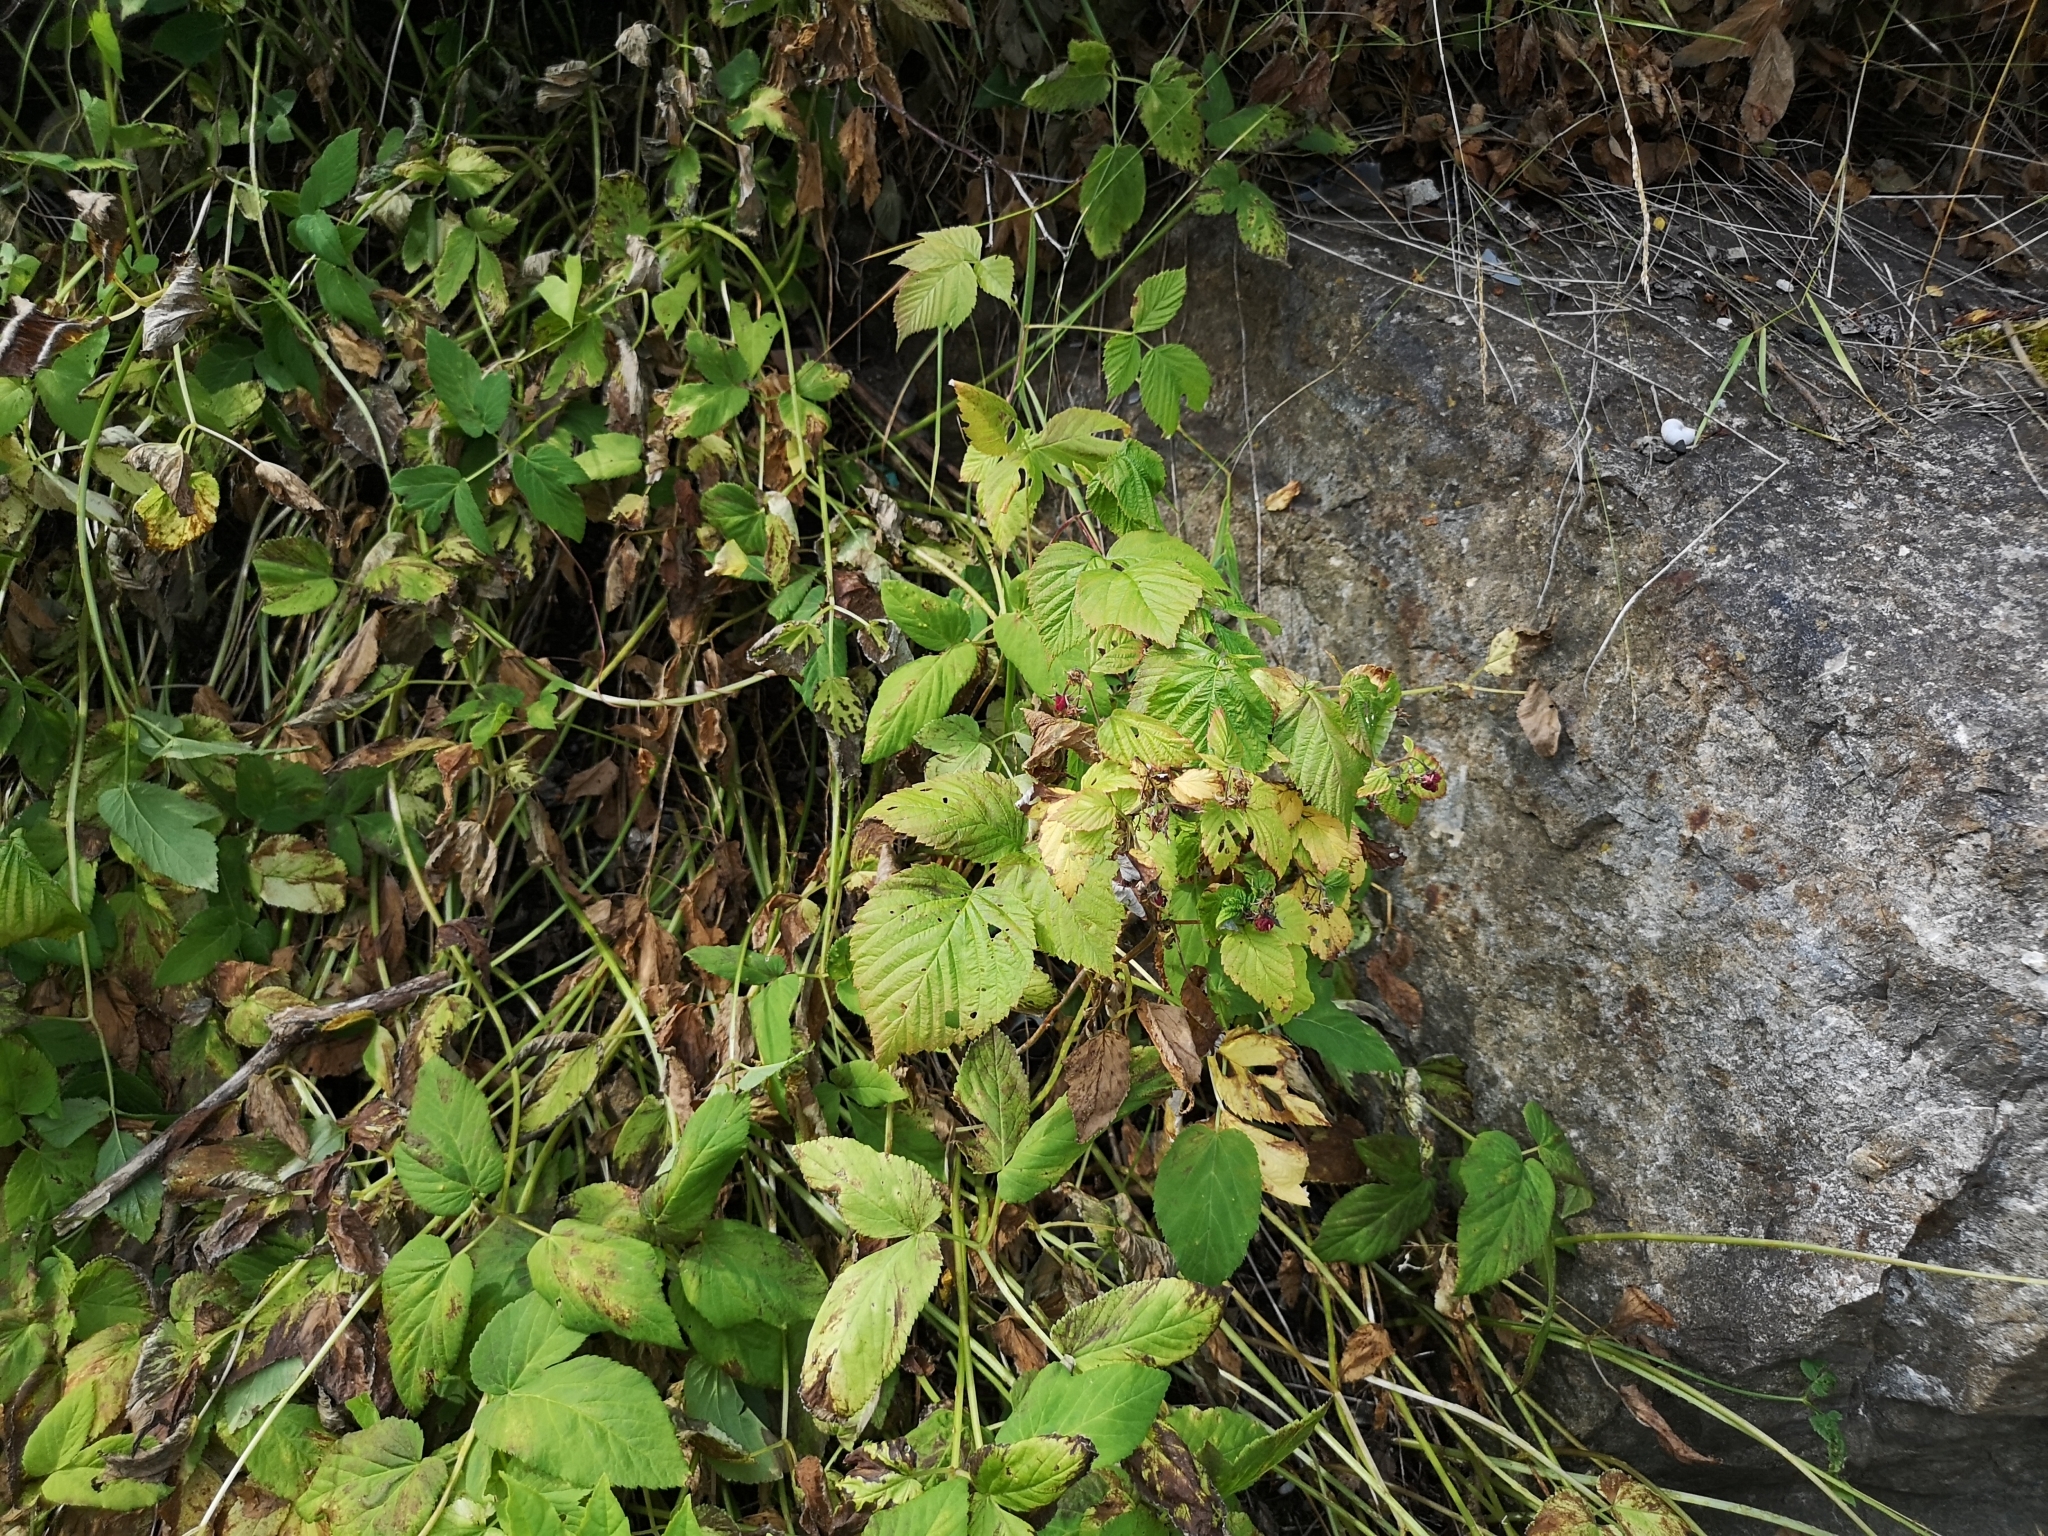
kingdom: Plantae
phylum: Tracheophyta
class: Magnoliopsida
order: Rosales
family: Rosaceae
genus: Rubus
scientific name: Rubus idaeus
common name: Raspberry
